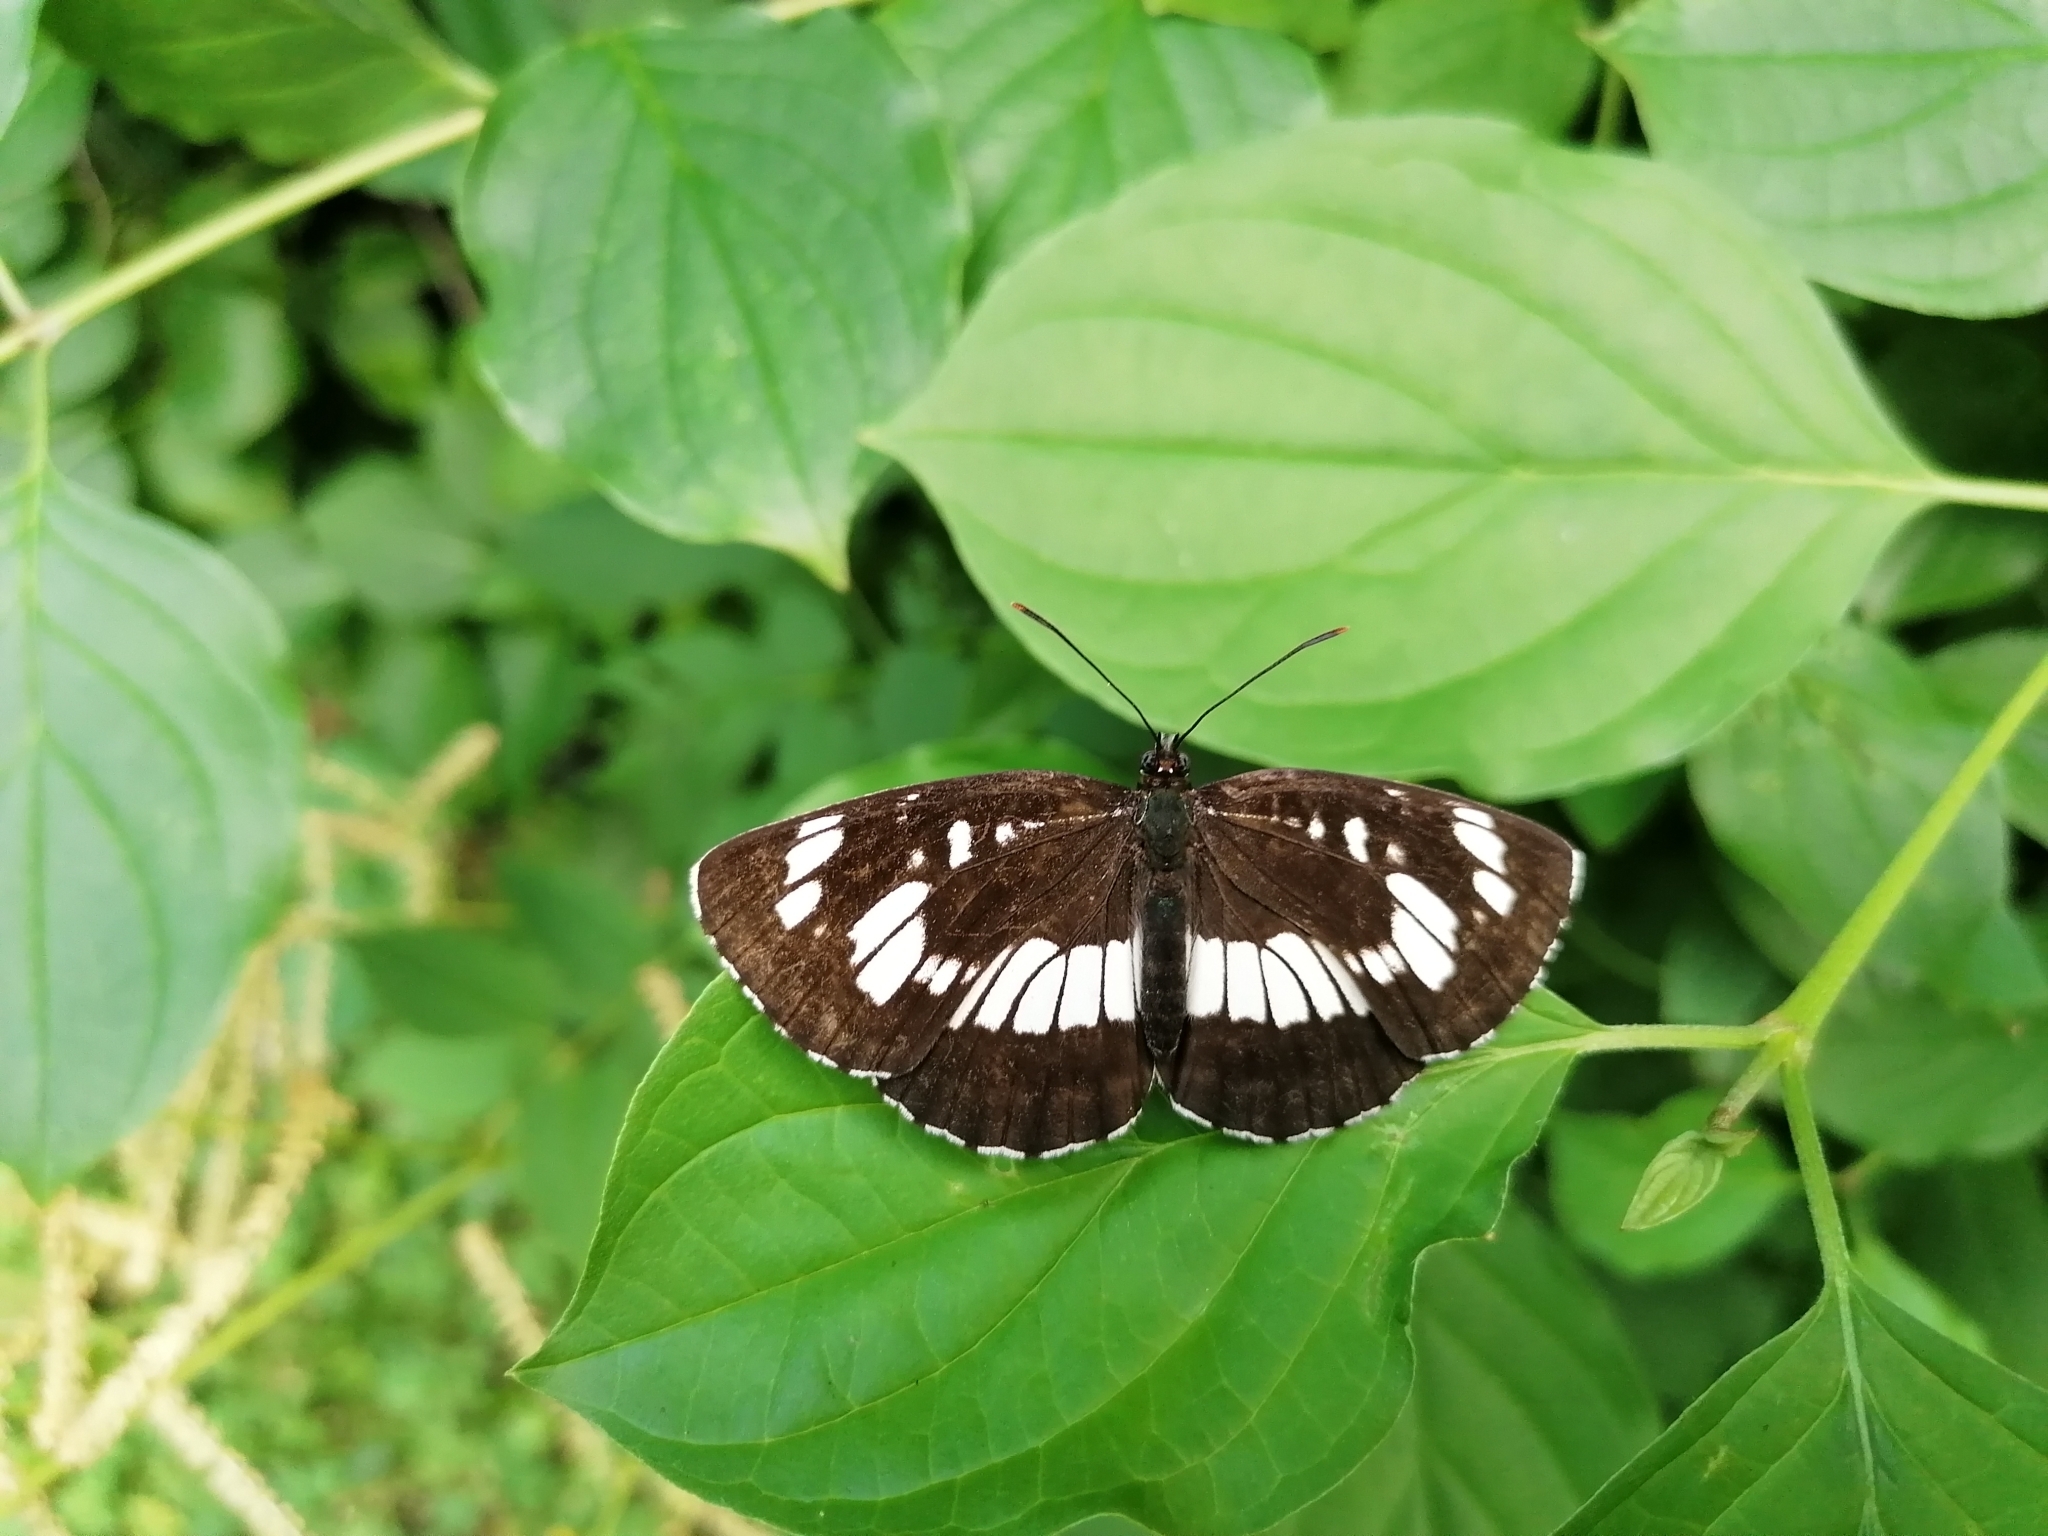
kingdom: Animalia
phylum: Arthropoda
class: Insecta
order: Lepidoptera
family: Nymphalidae
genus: Neptis
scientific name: Neptis rivularis
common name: Hungarian glider
